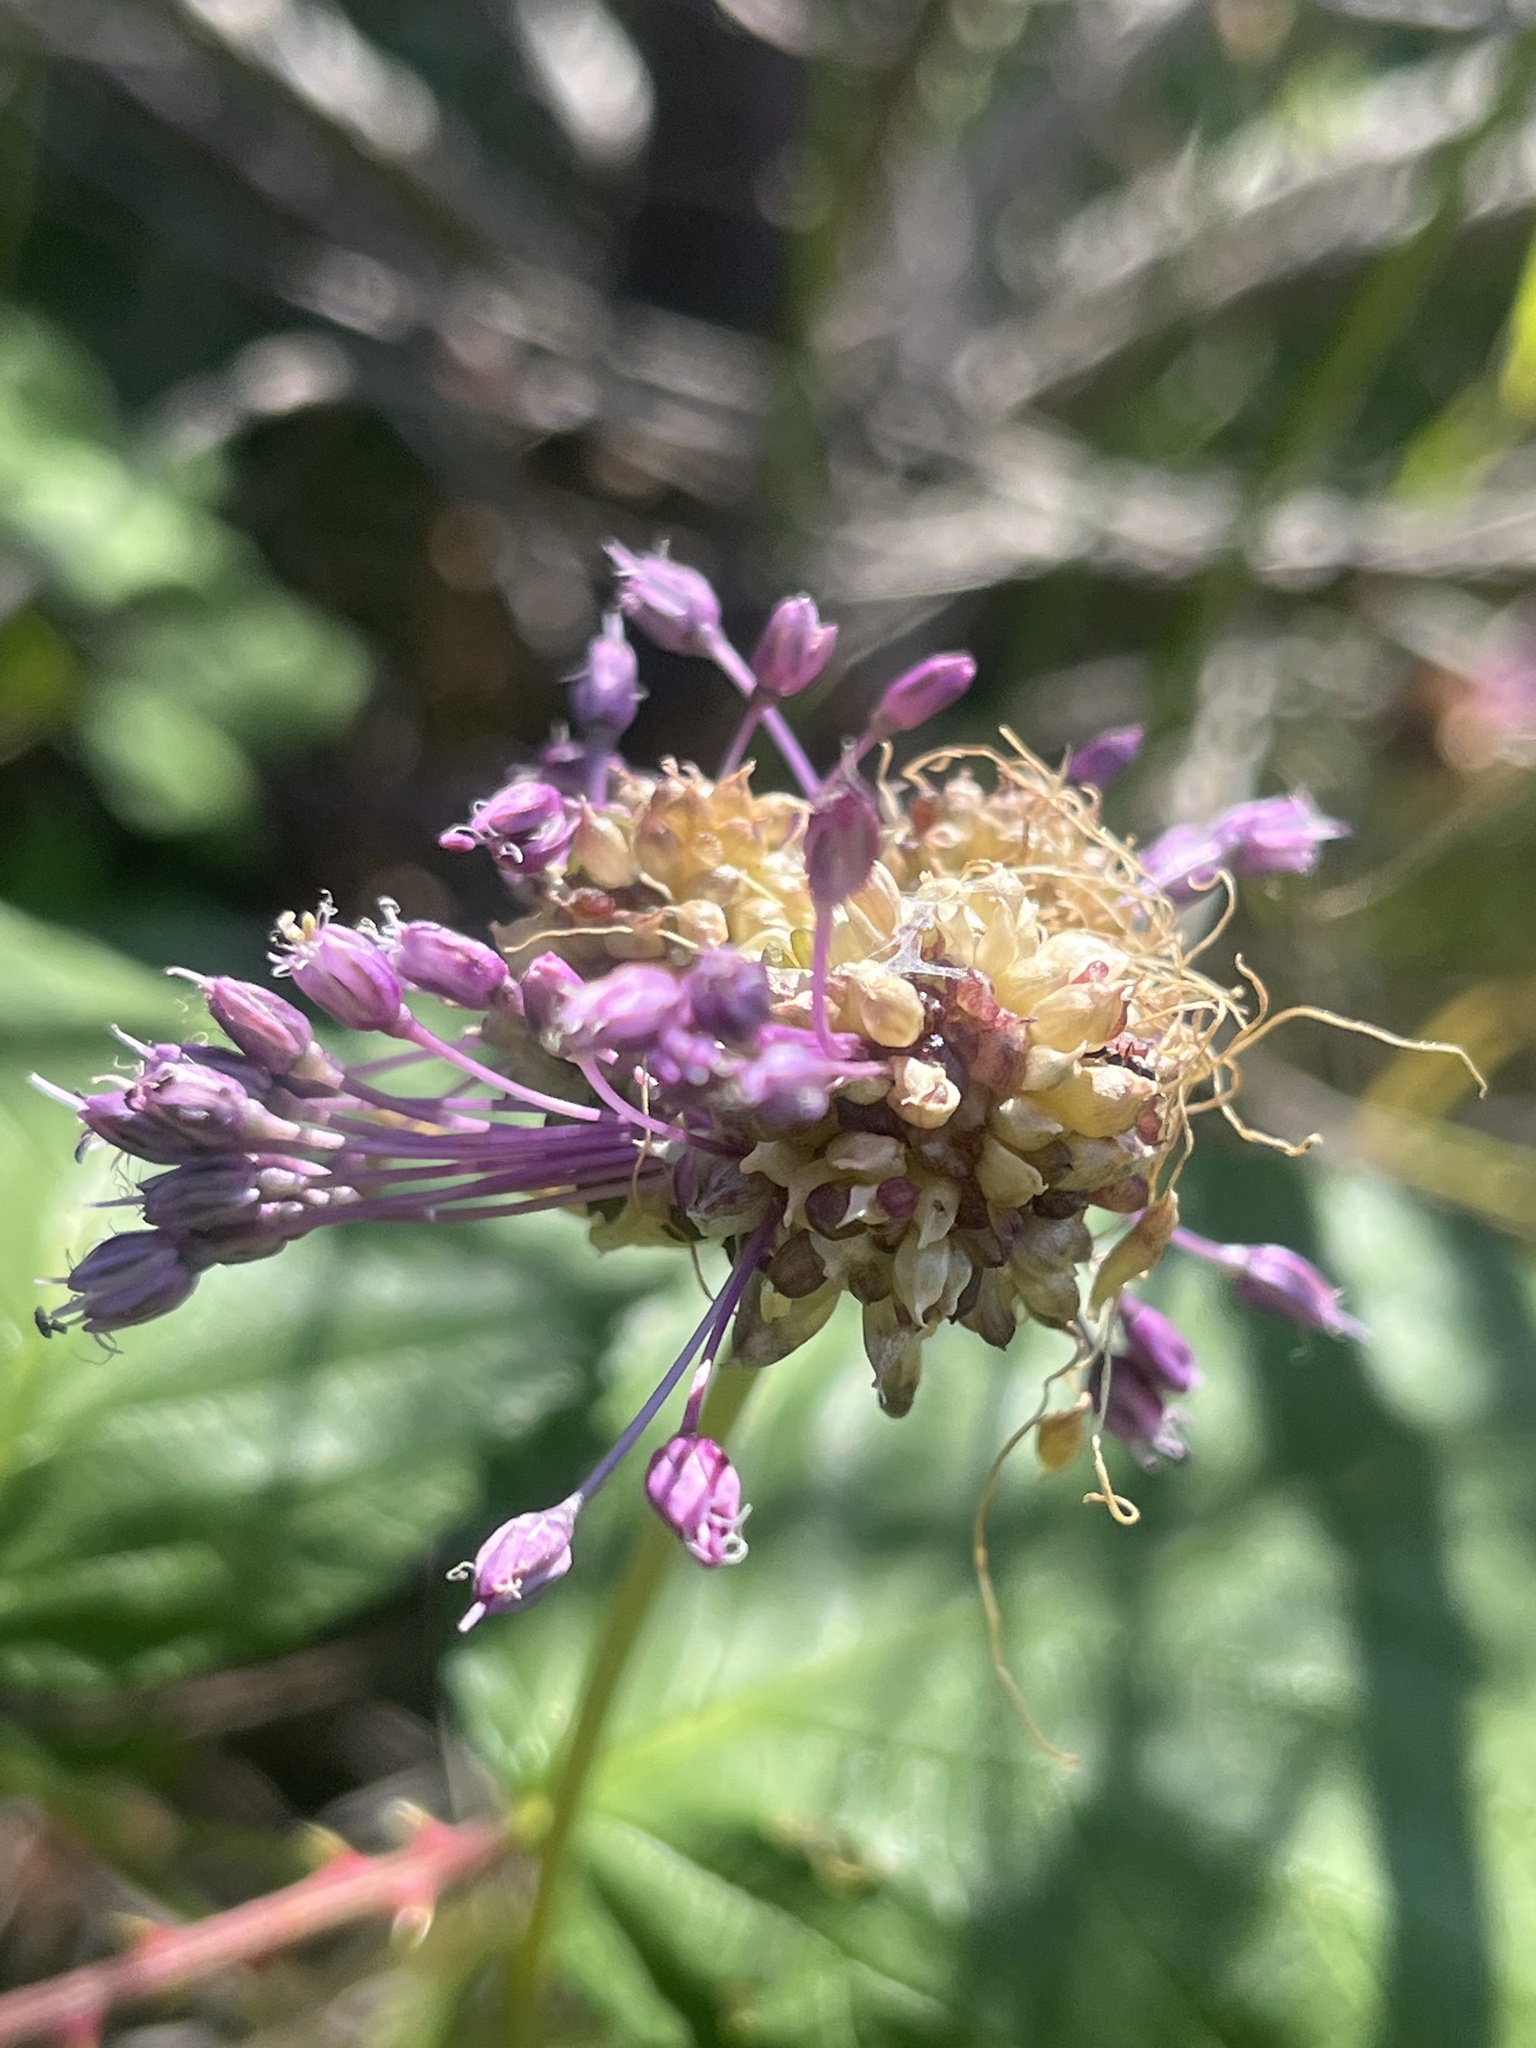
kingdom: Plantae
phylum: Tracheophyta
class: Liliopsida
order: Asparagales
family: Amaryllidaceae
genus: Allium
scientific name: Allium vineale
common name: Crow garlic
